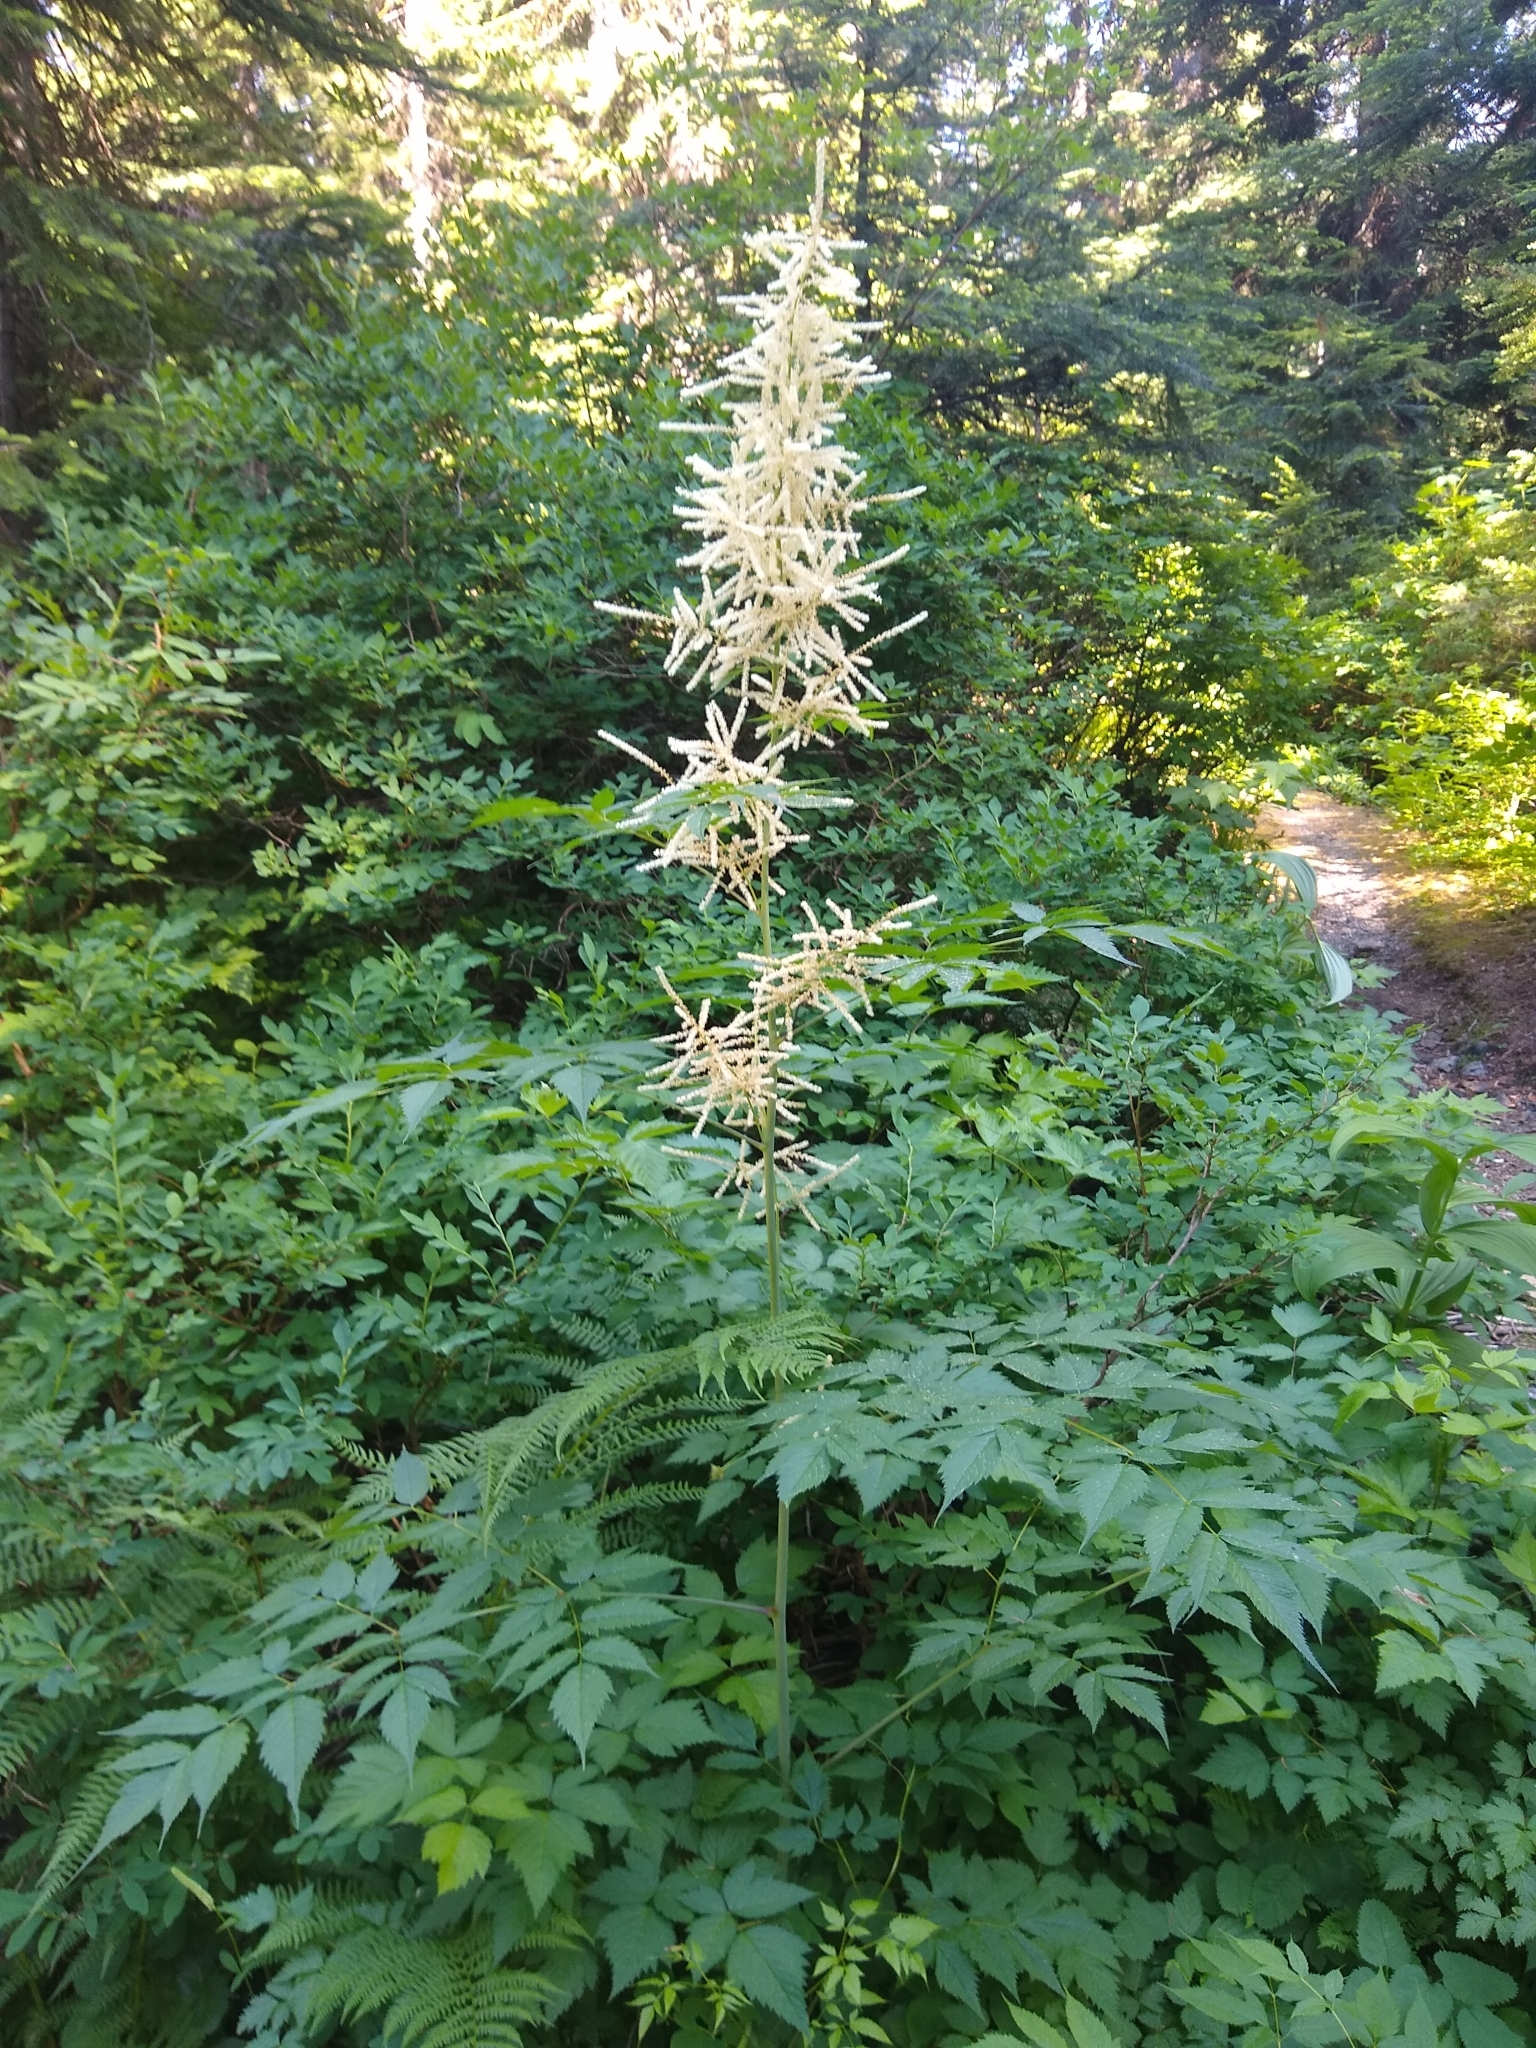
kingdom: Plantae
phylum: Tracheophyta
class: Magnoliopsida
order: Rosales
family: Rosaceae
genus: Aruncus
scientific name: Aruncus dioicus
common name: Buck's-beard
